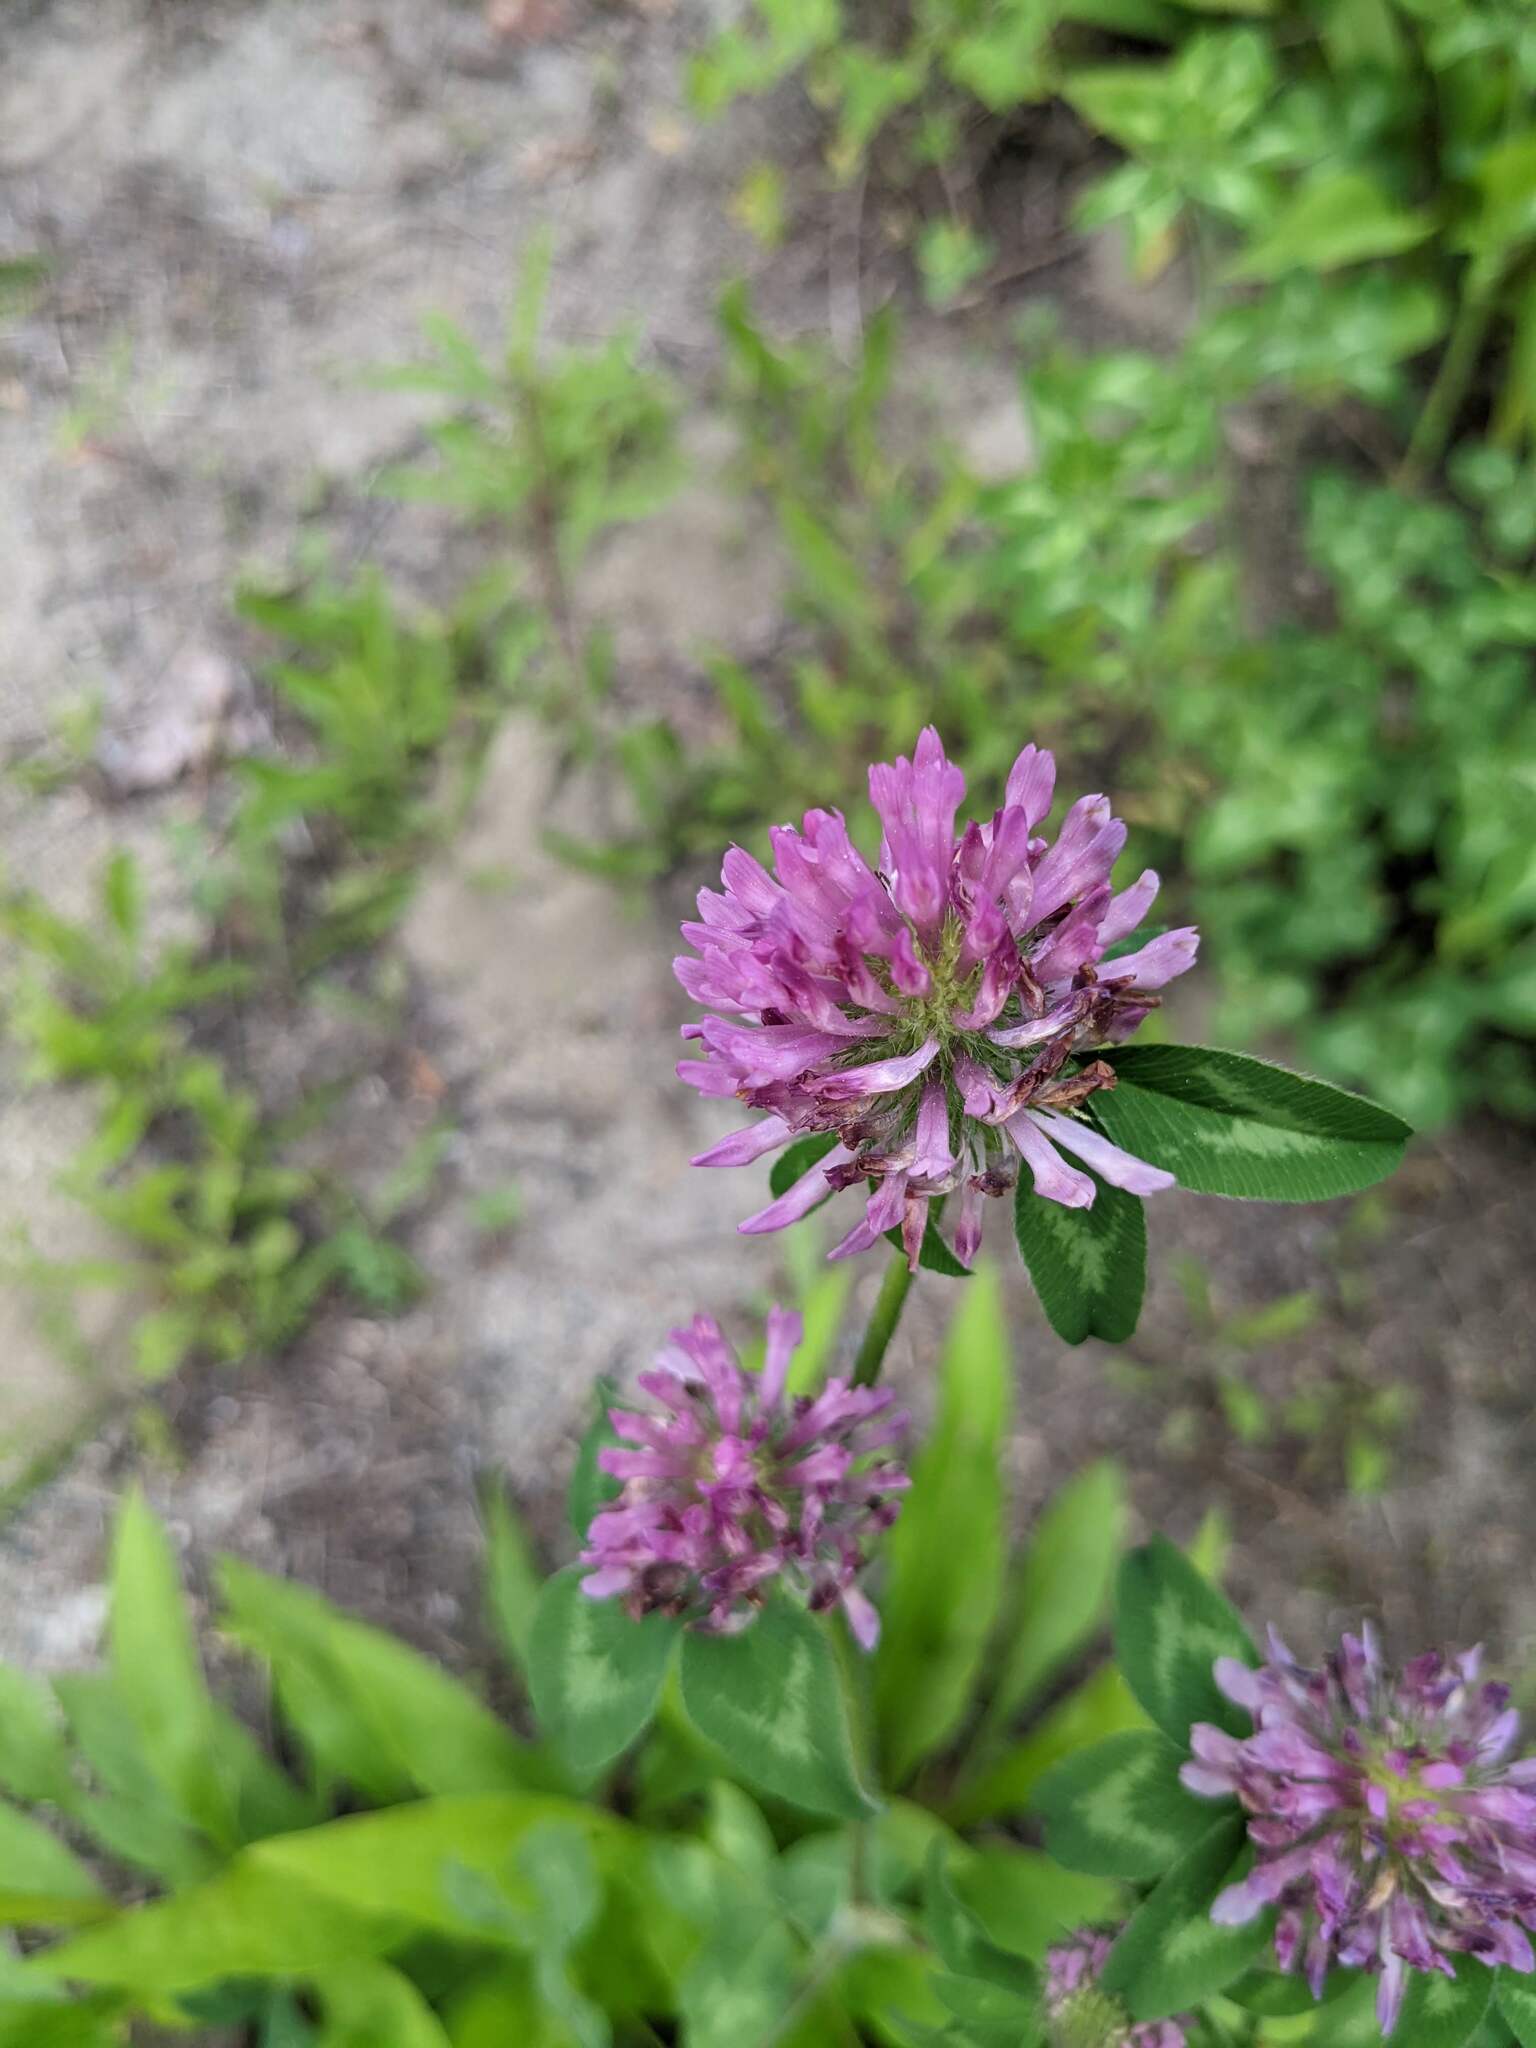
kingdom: Plantae
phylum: Tracheophyta
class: Magnoliopsida
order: Fabales
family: Fabaceae
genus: Trifolium
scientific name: Trifolium pratense
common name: Red clover
